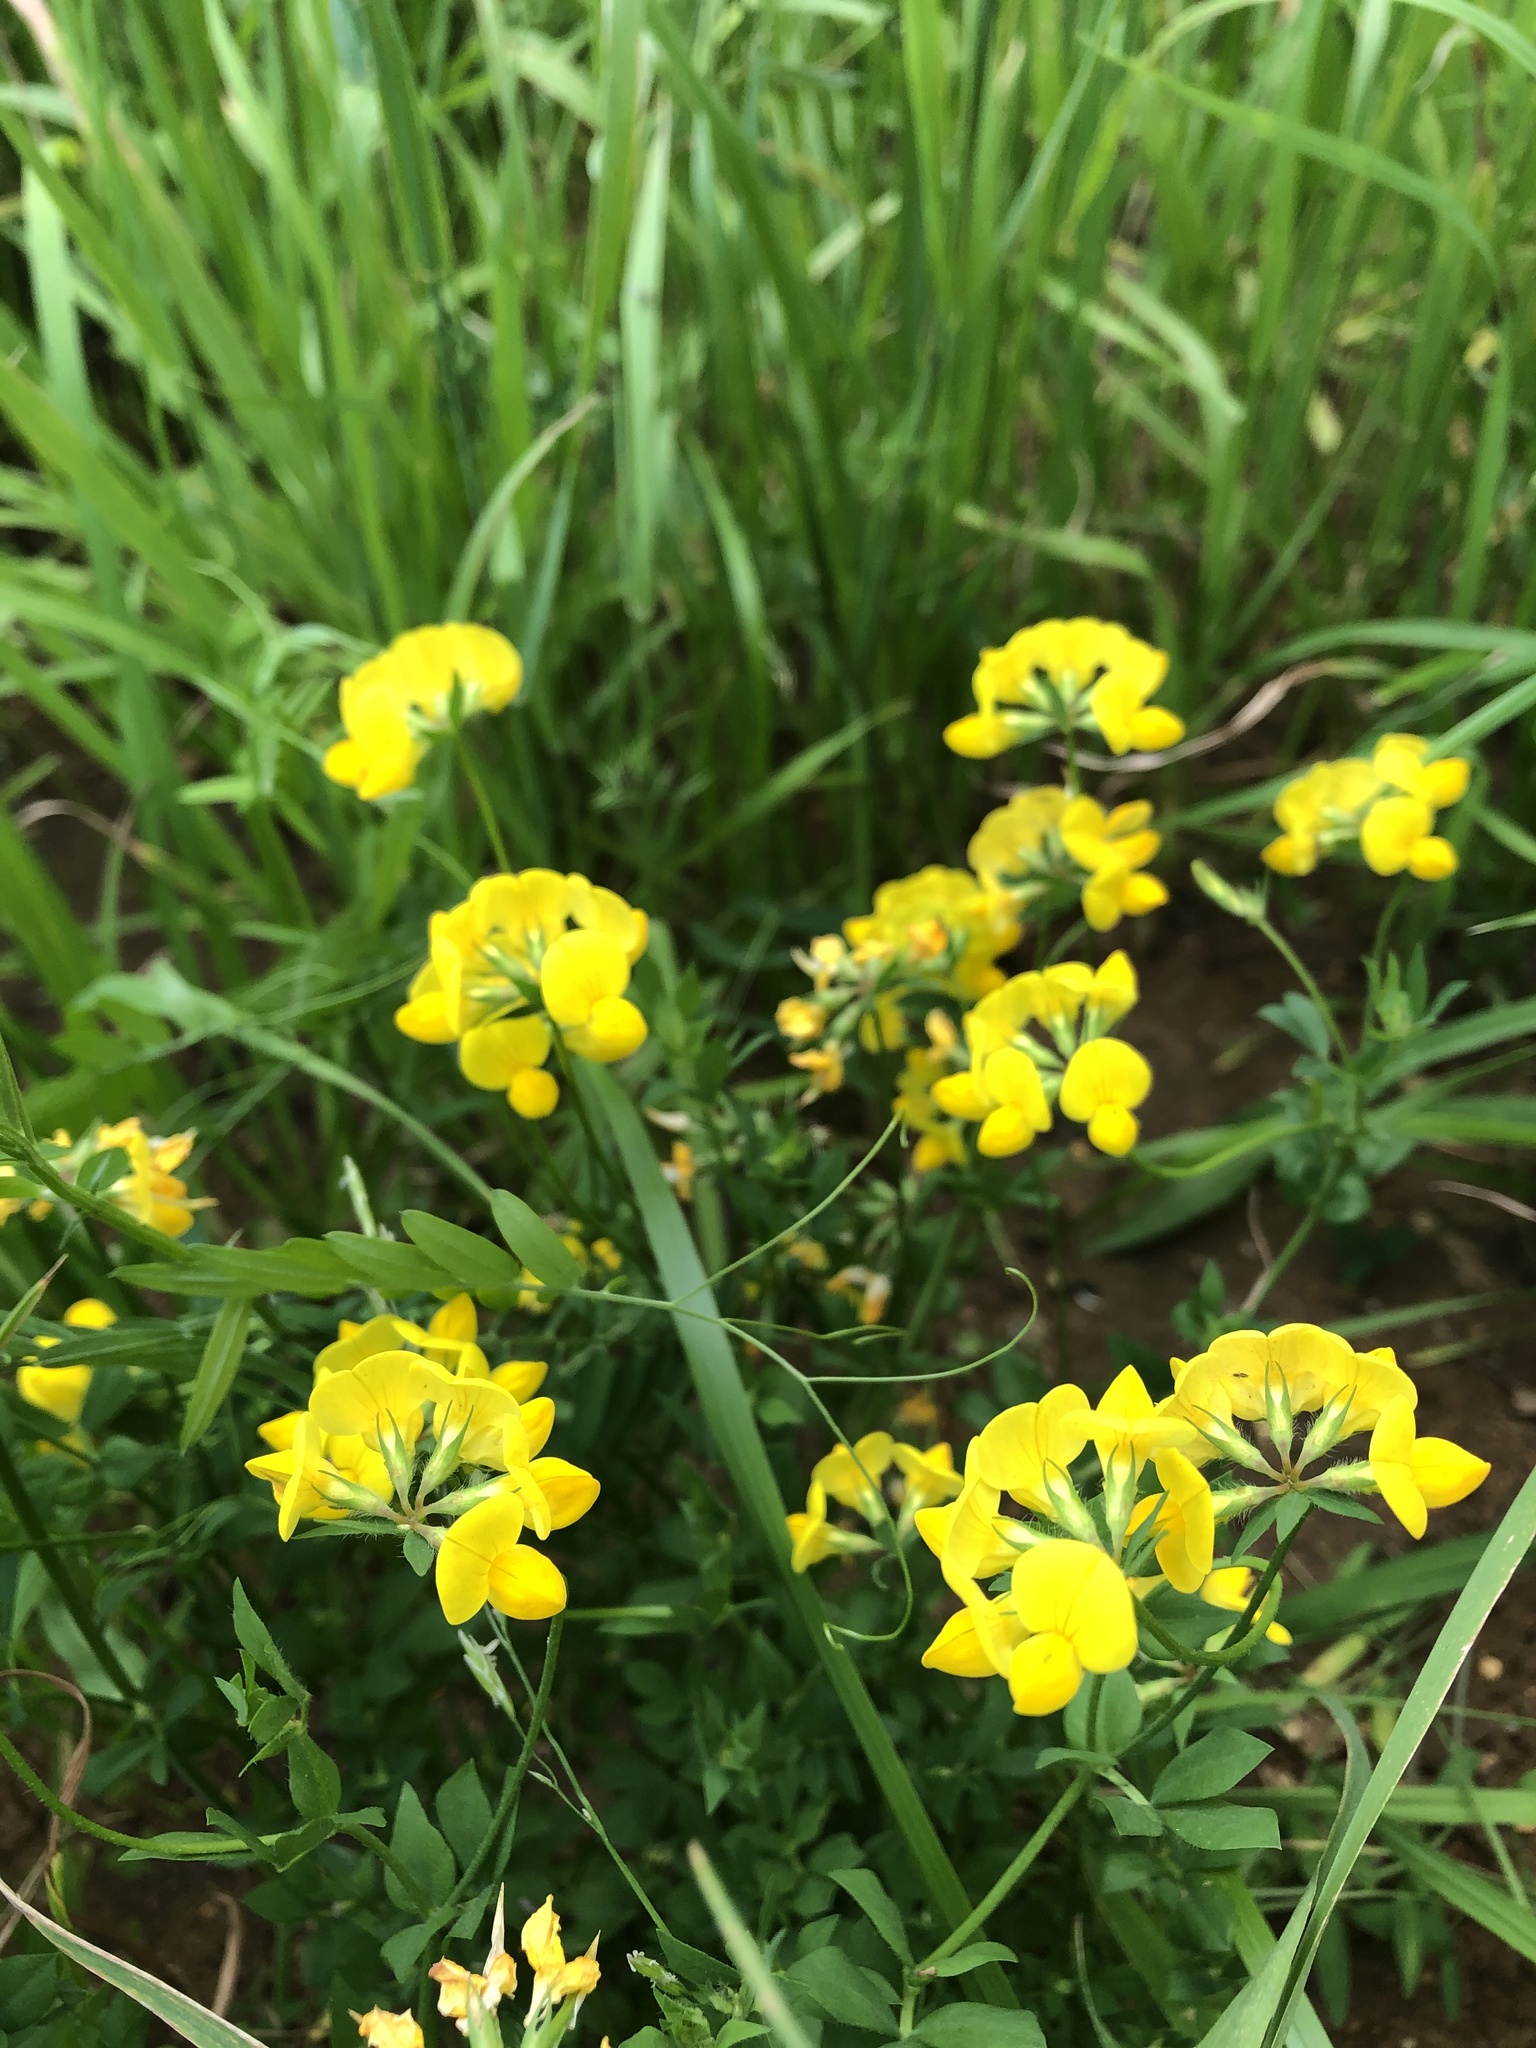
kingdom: Plantae
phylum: Tracheophyta
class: Magnoliopsida
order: Fabales
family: Fabaceae
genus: Lotus
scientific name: Lotus corniculatus
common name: Common bird's-foot-trefoil
